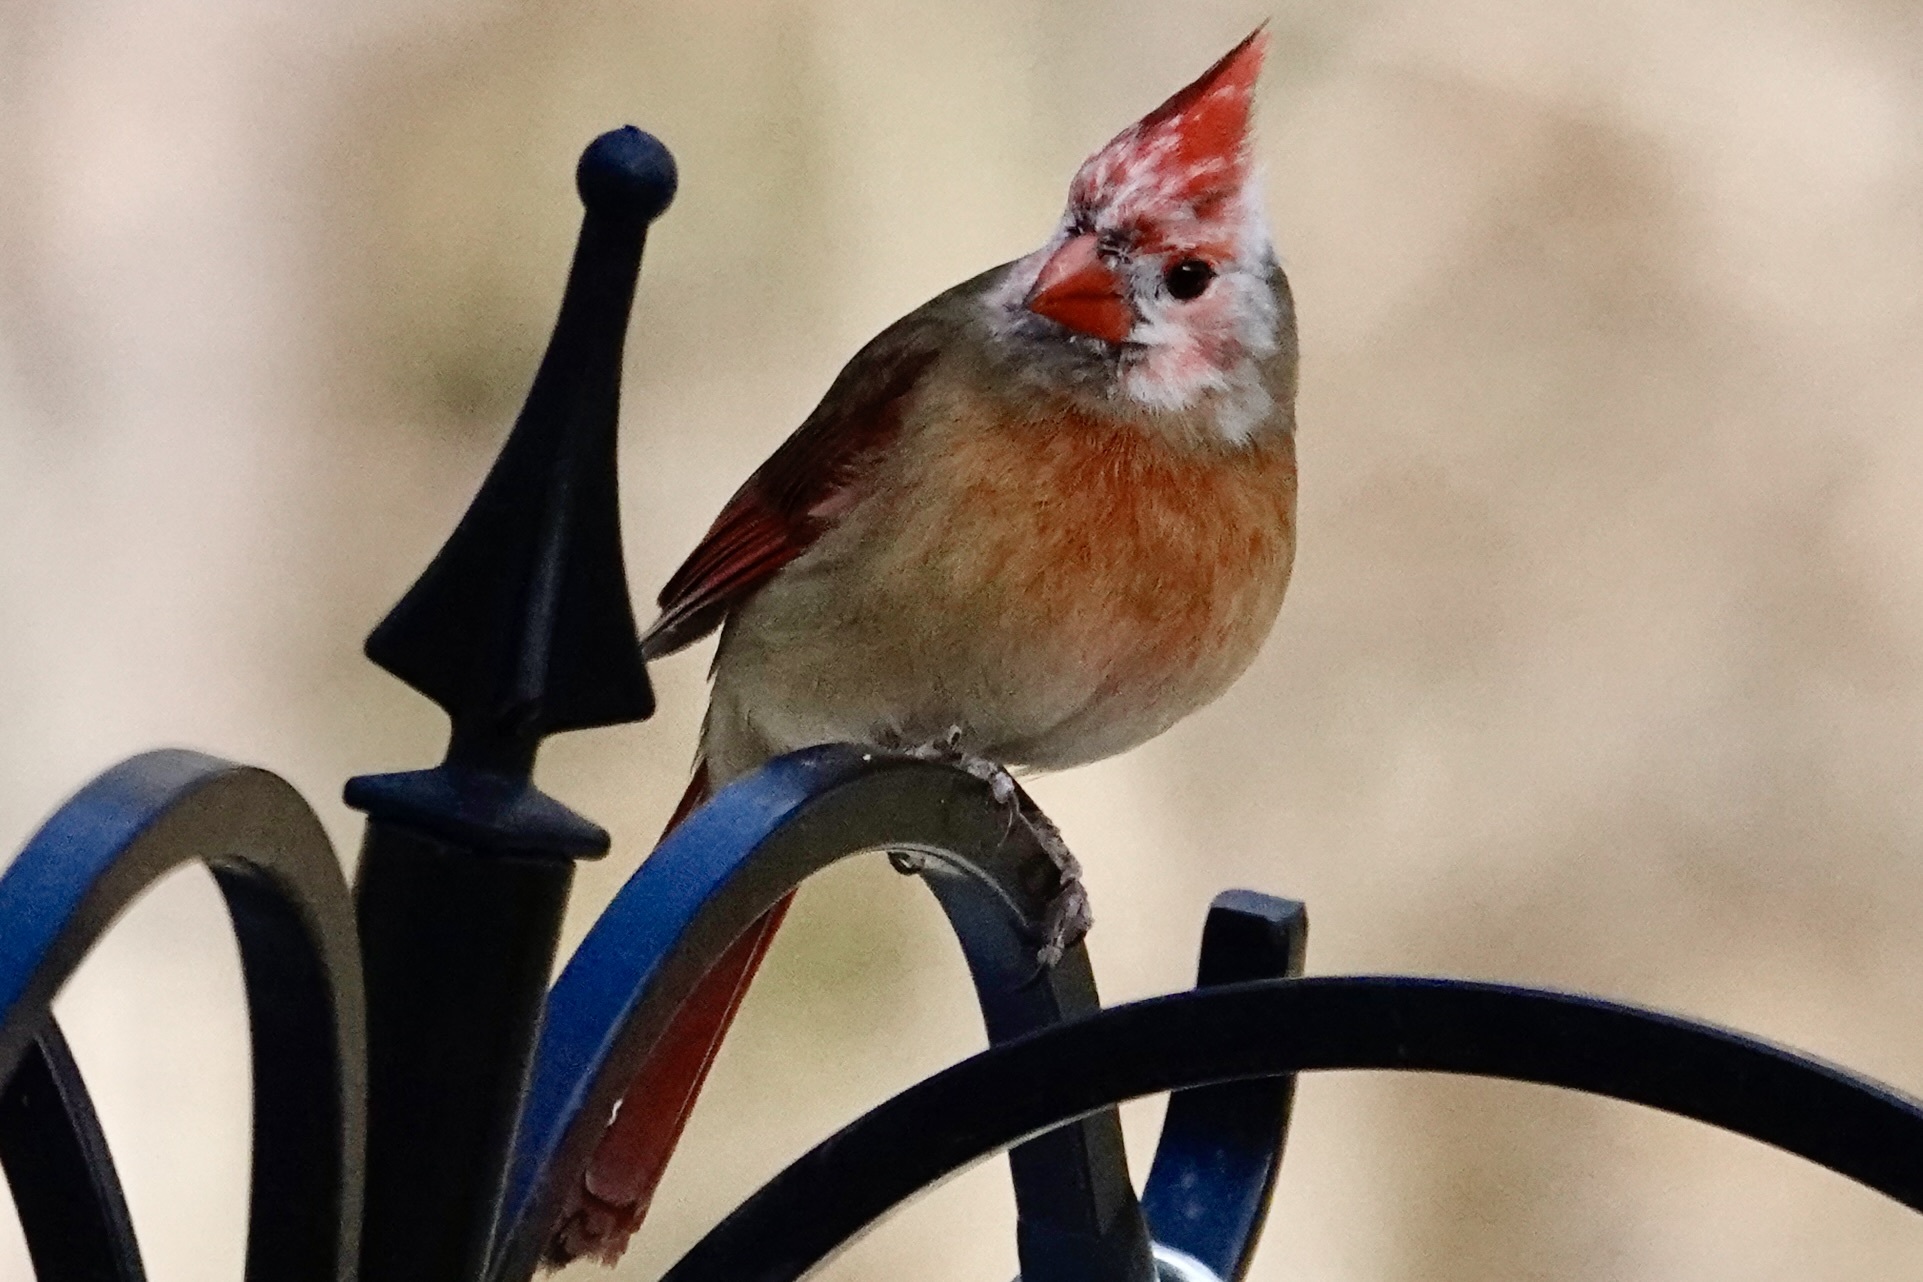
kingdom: Animalia
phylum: Chordata
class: Aves
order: Passeriformes
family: Cardinalidae
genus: Cardinalis
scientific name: Cardinalis cardinalis
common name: Northern cardinal
